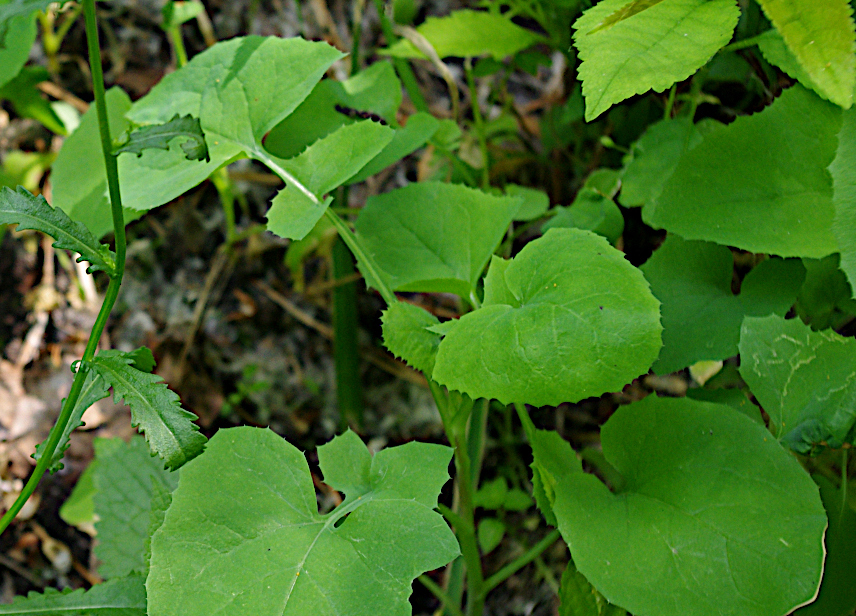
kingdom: Plantae
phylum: Tracheophyta
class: Magnoliopsida
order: Asterales
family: Asteraceae
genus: Sonchus
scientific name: Sonchus oleraceus
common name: Common sowthistle
